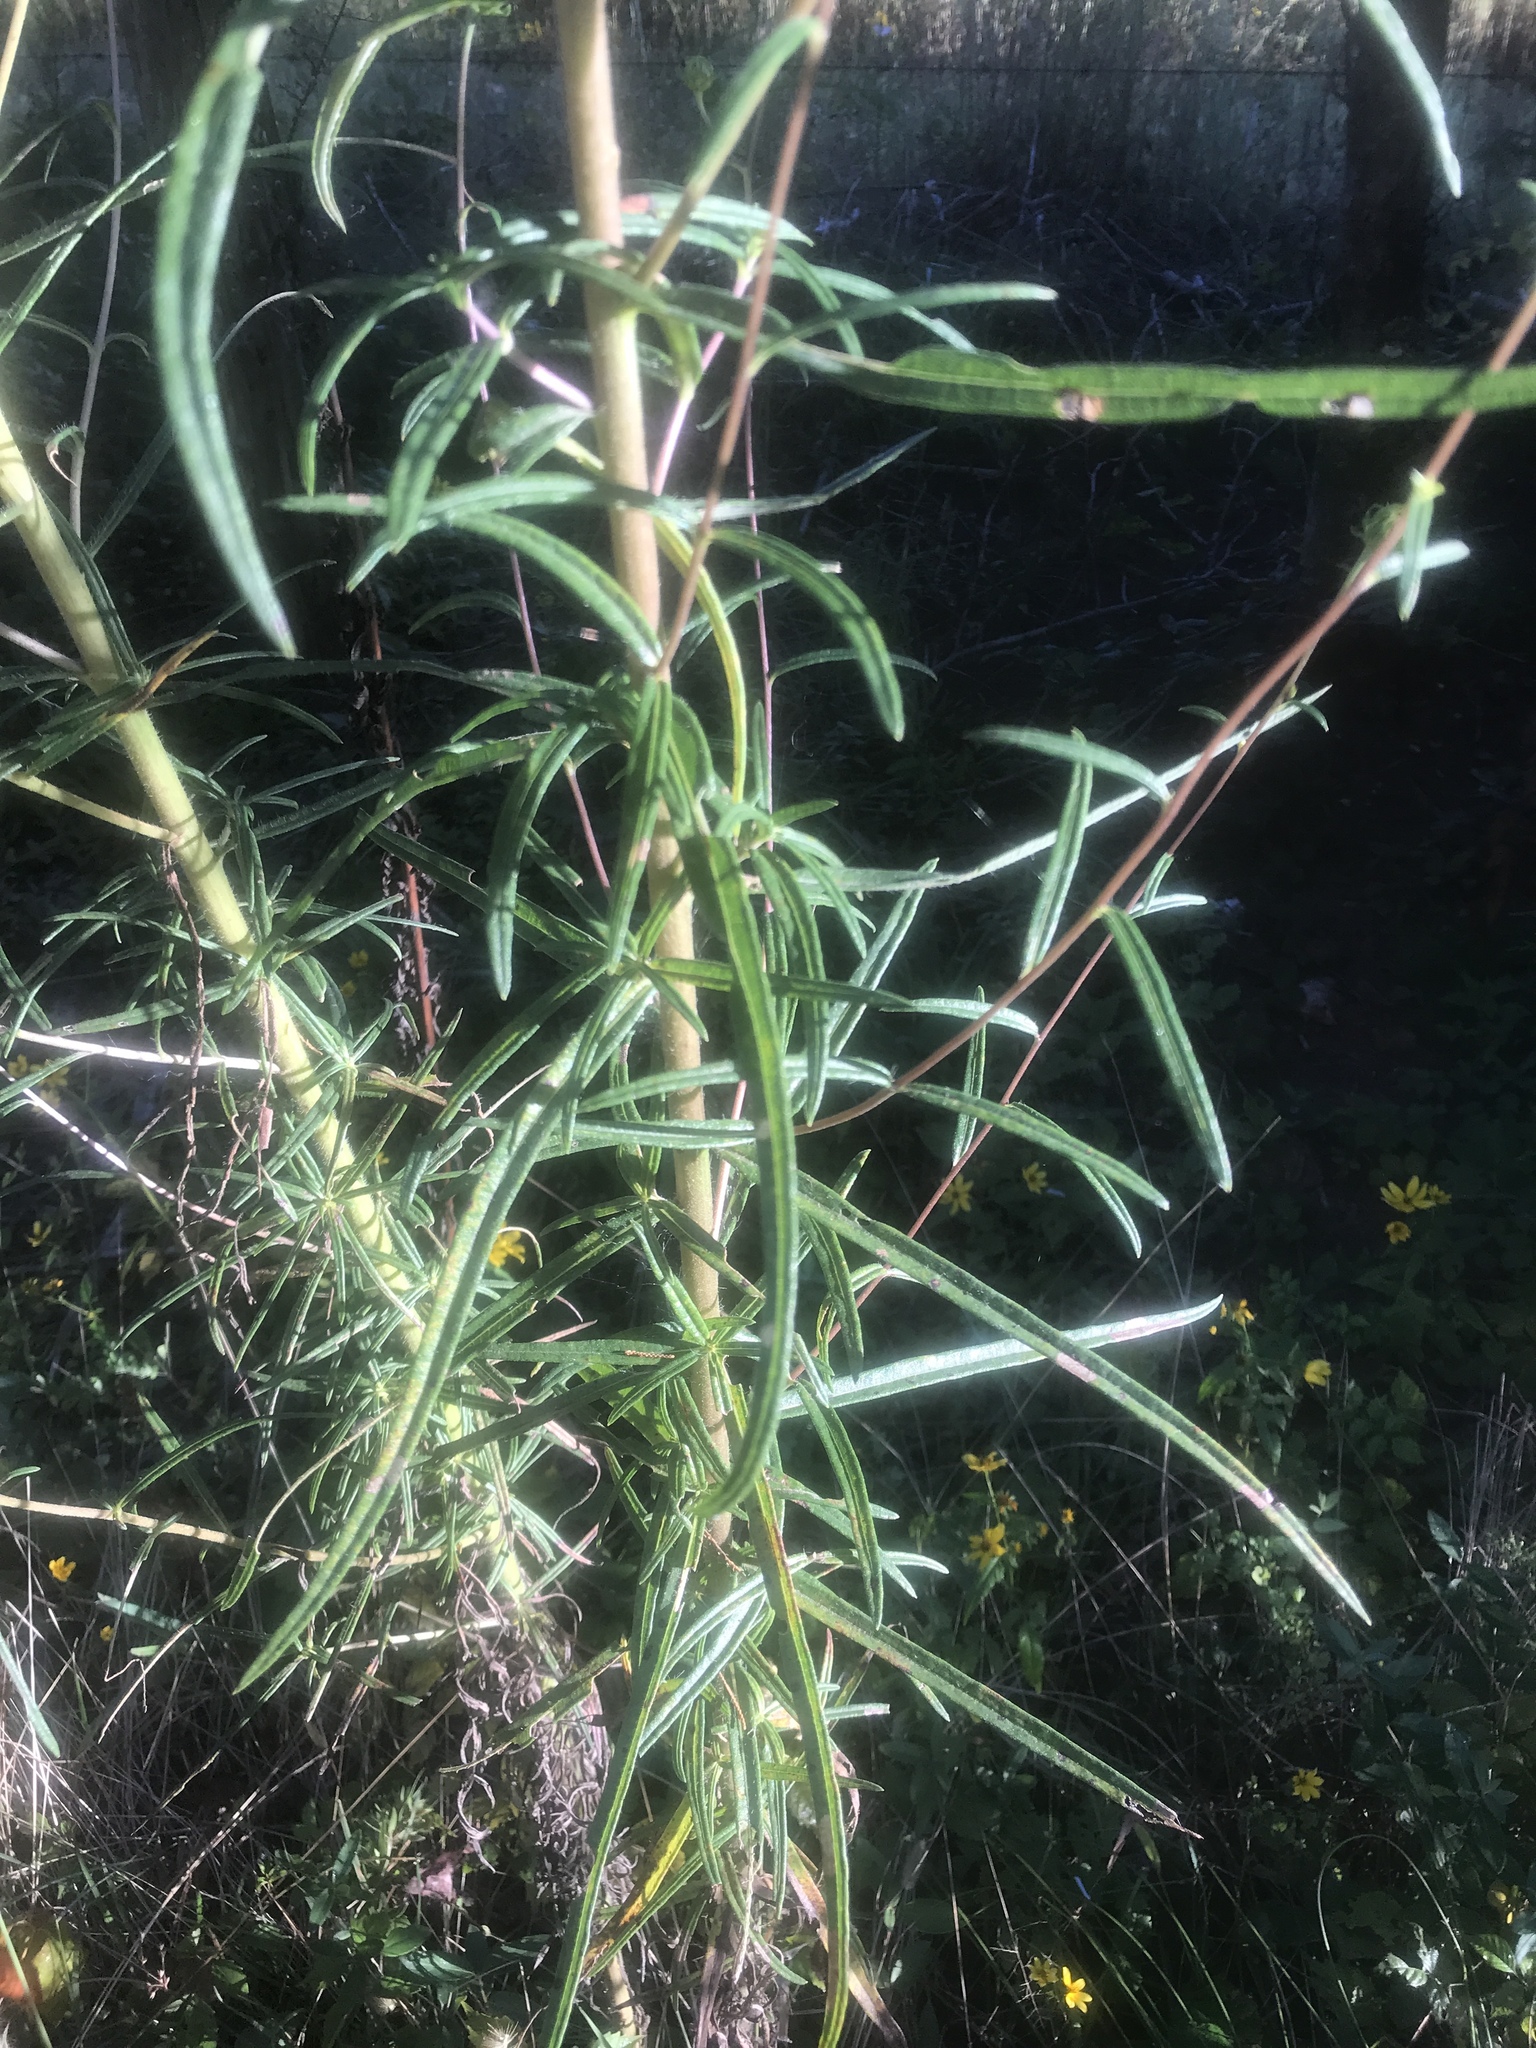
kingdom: Plantae
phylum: Tracheophyta
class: Magnoliopsida
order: Asterales
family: Asteraceae
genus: Helianthus
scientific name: Helianthus angustifolius
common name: Swamp sunflower
